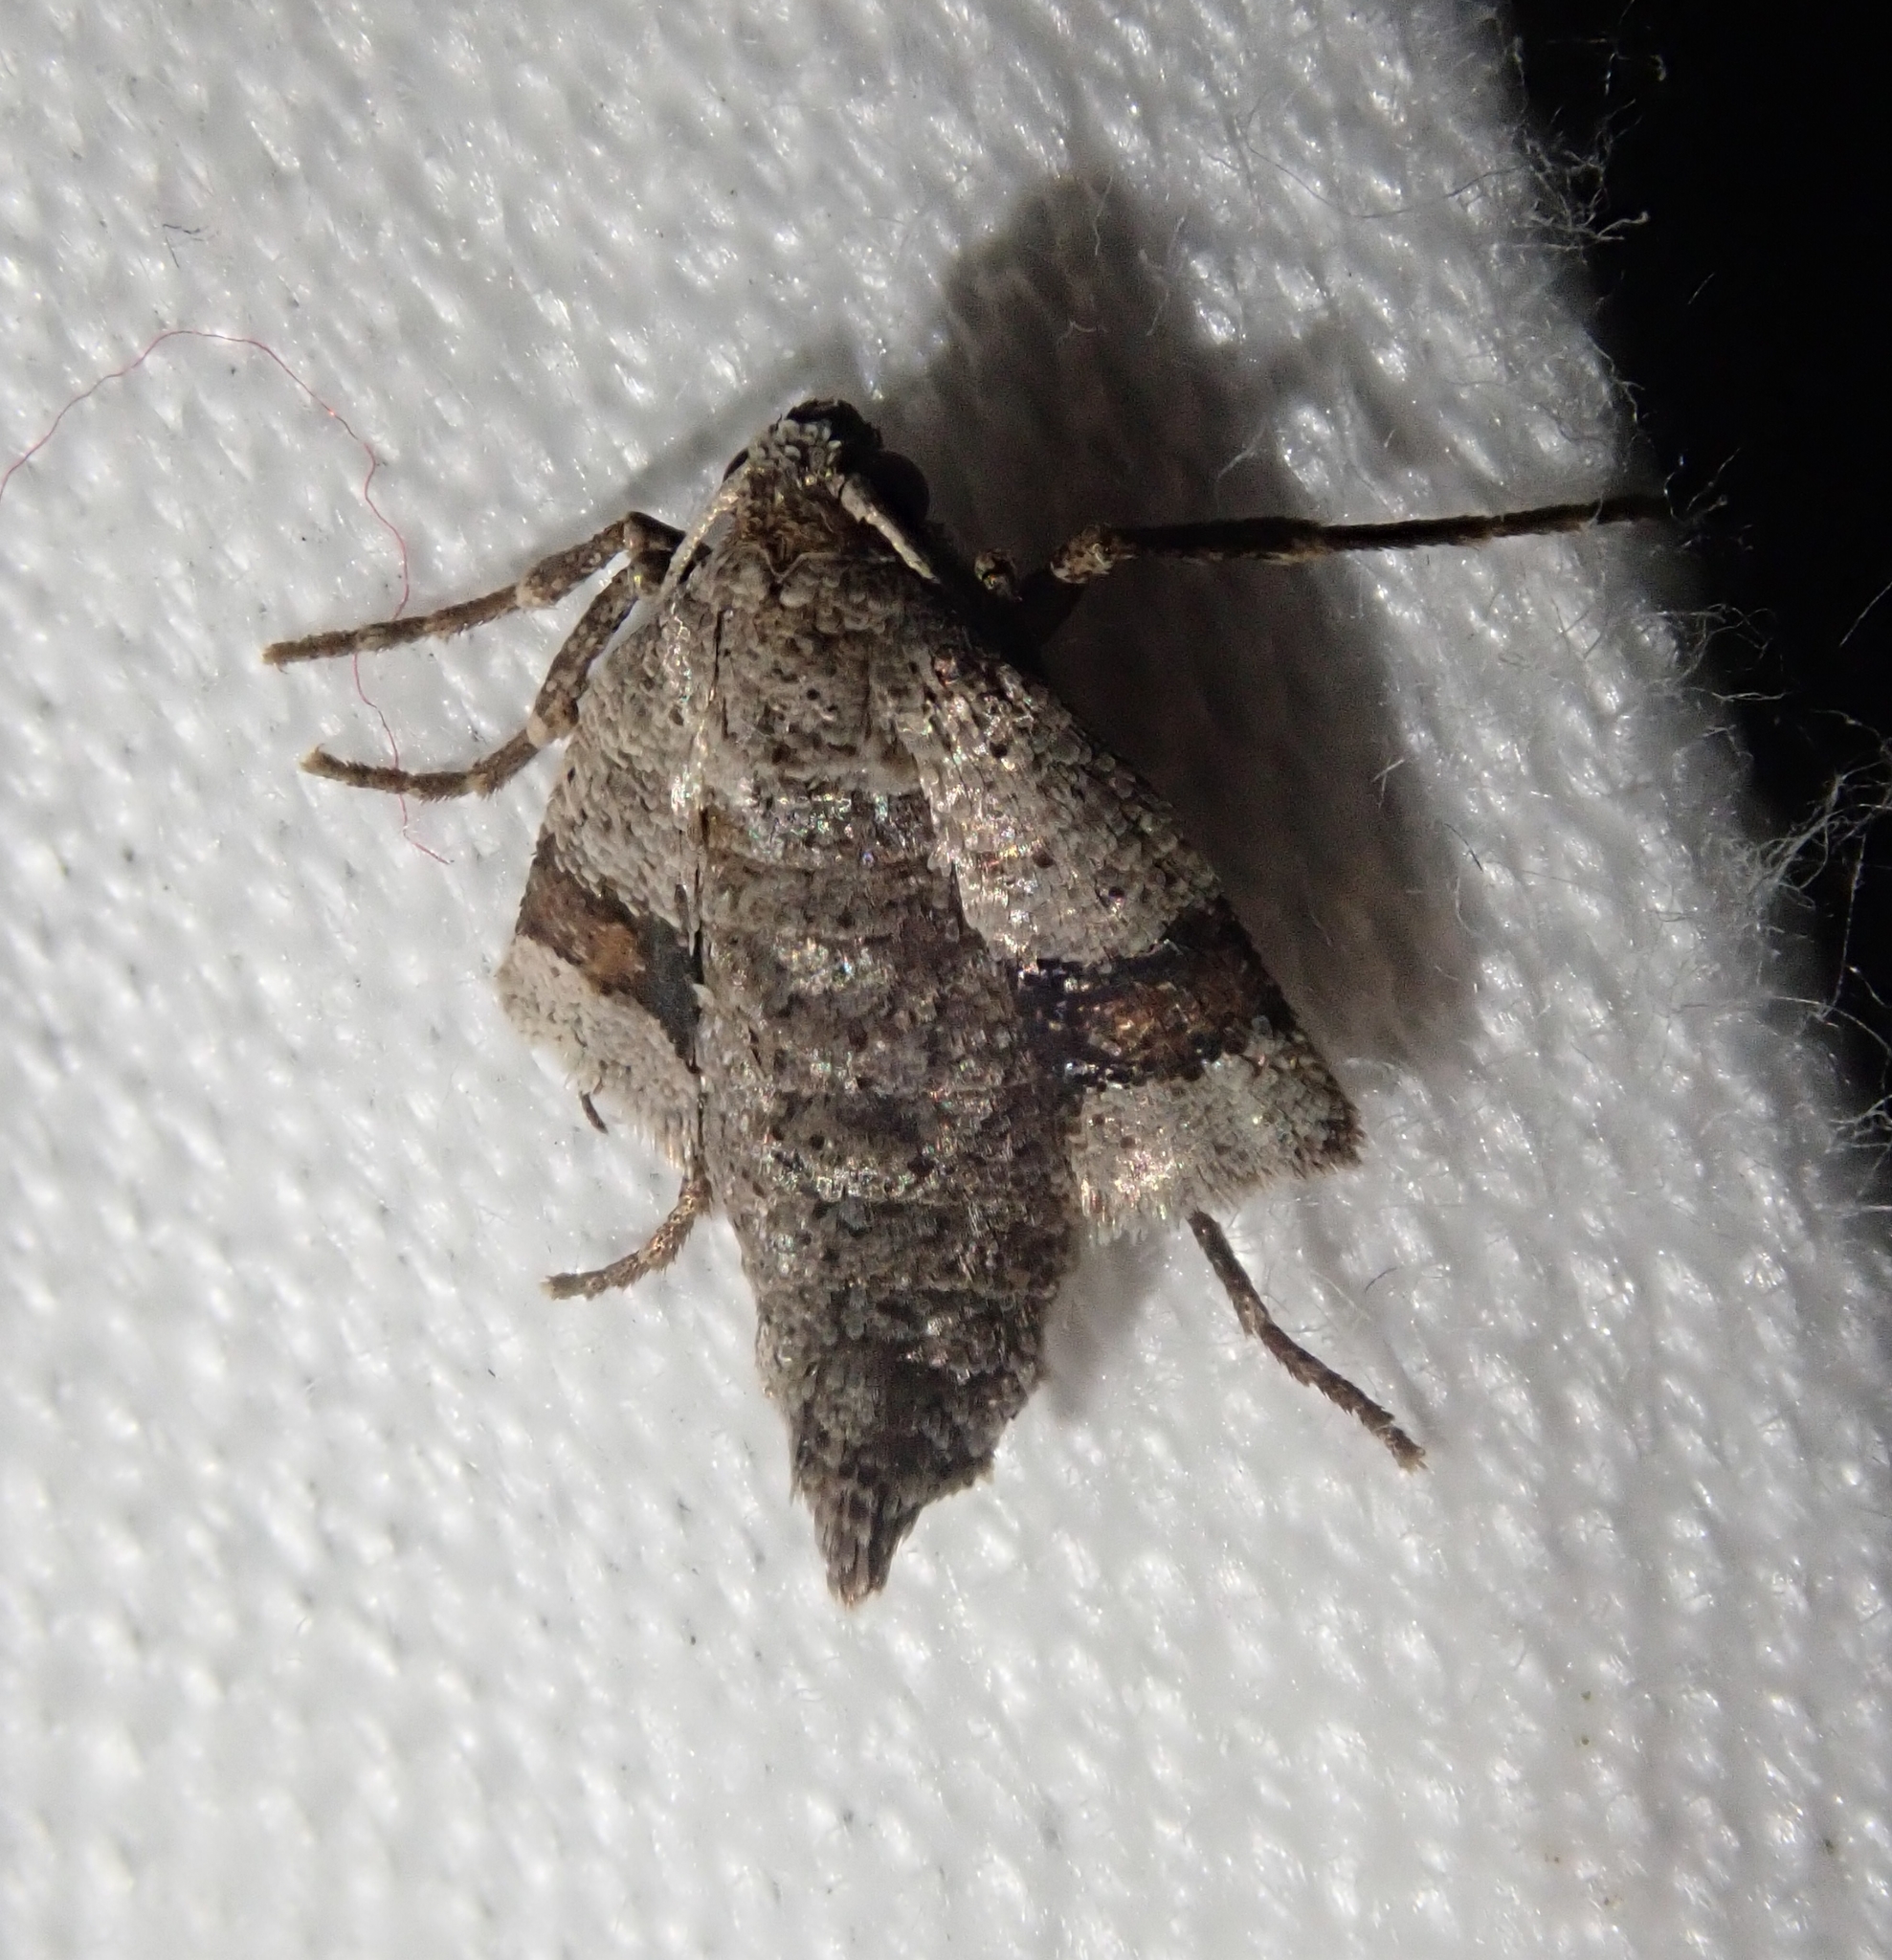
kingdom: Animalia
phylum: Arthropoda
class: Insecta
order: Lepidoptera
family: Geometridae
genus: Theria
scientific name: Theria primaria
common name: Early moth
